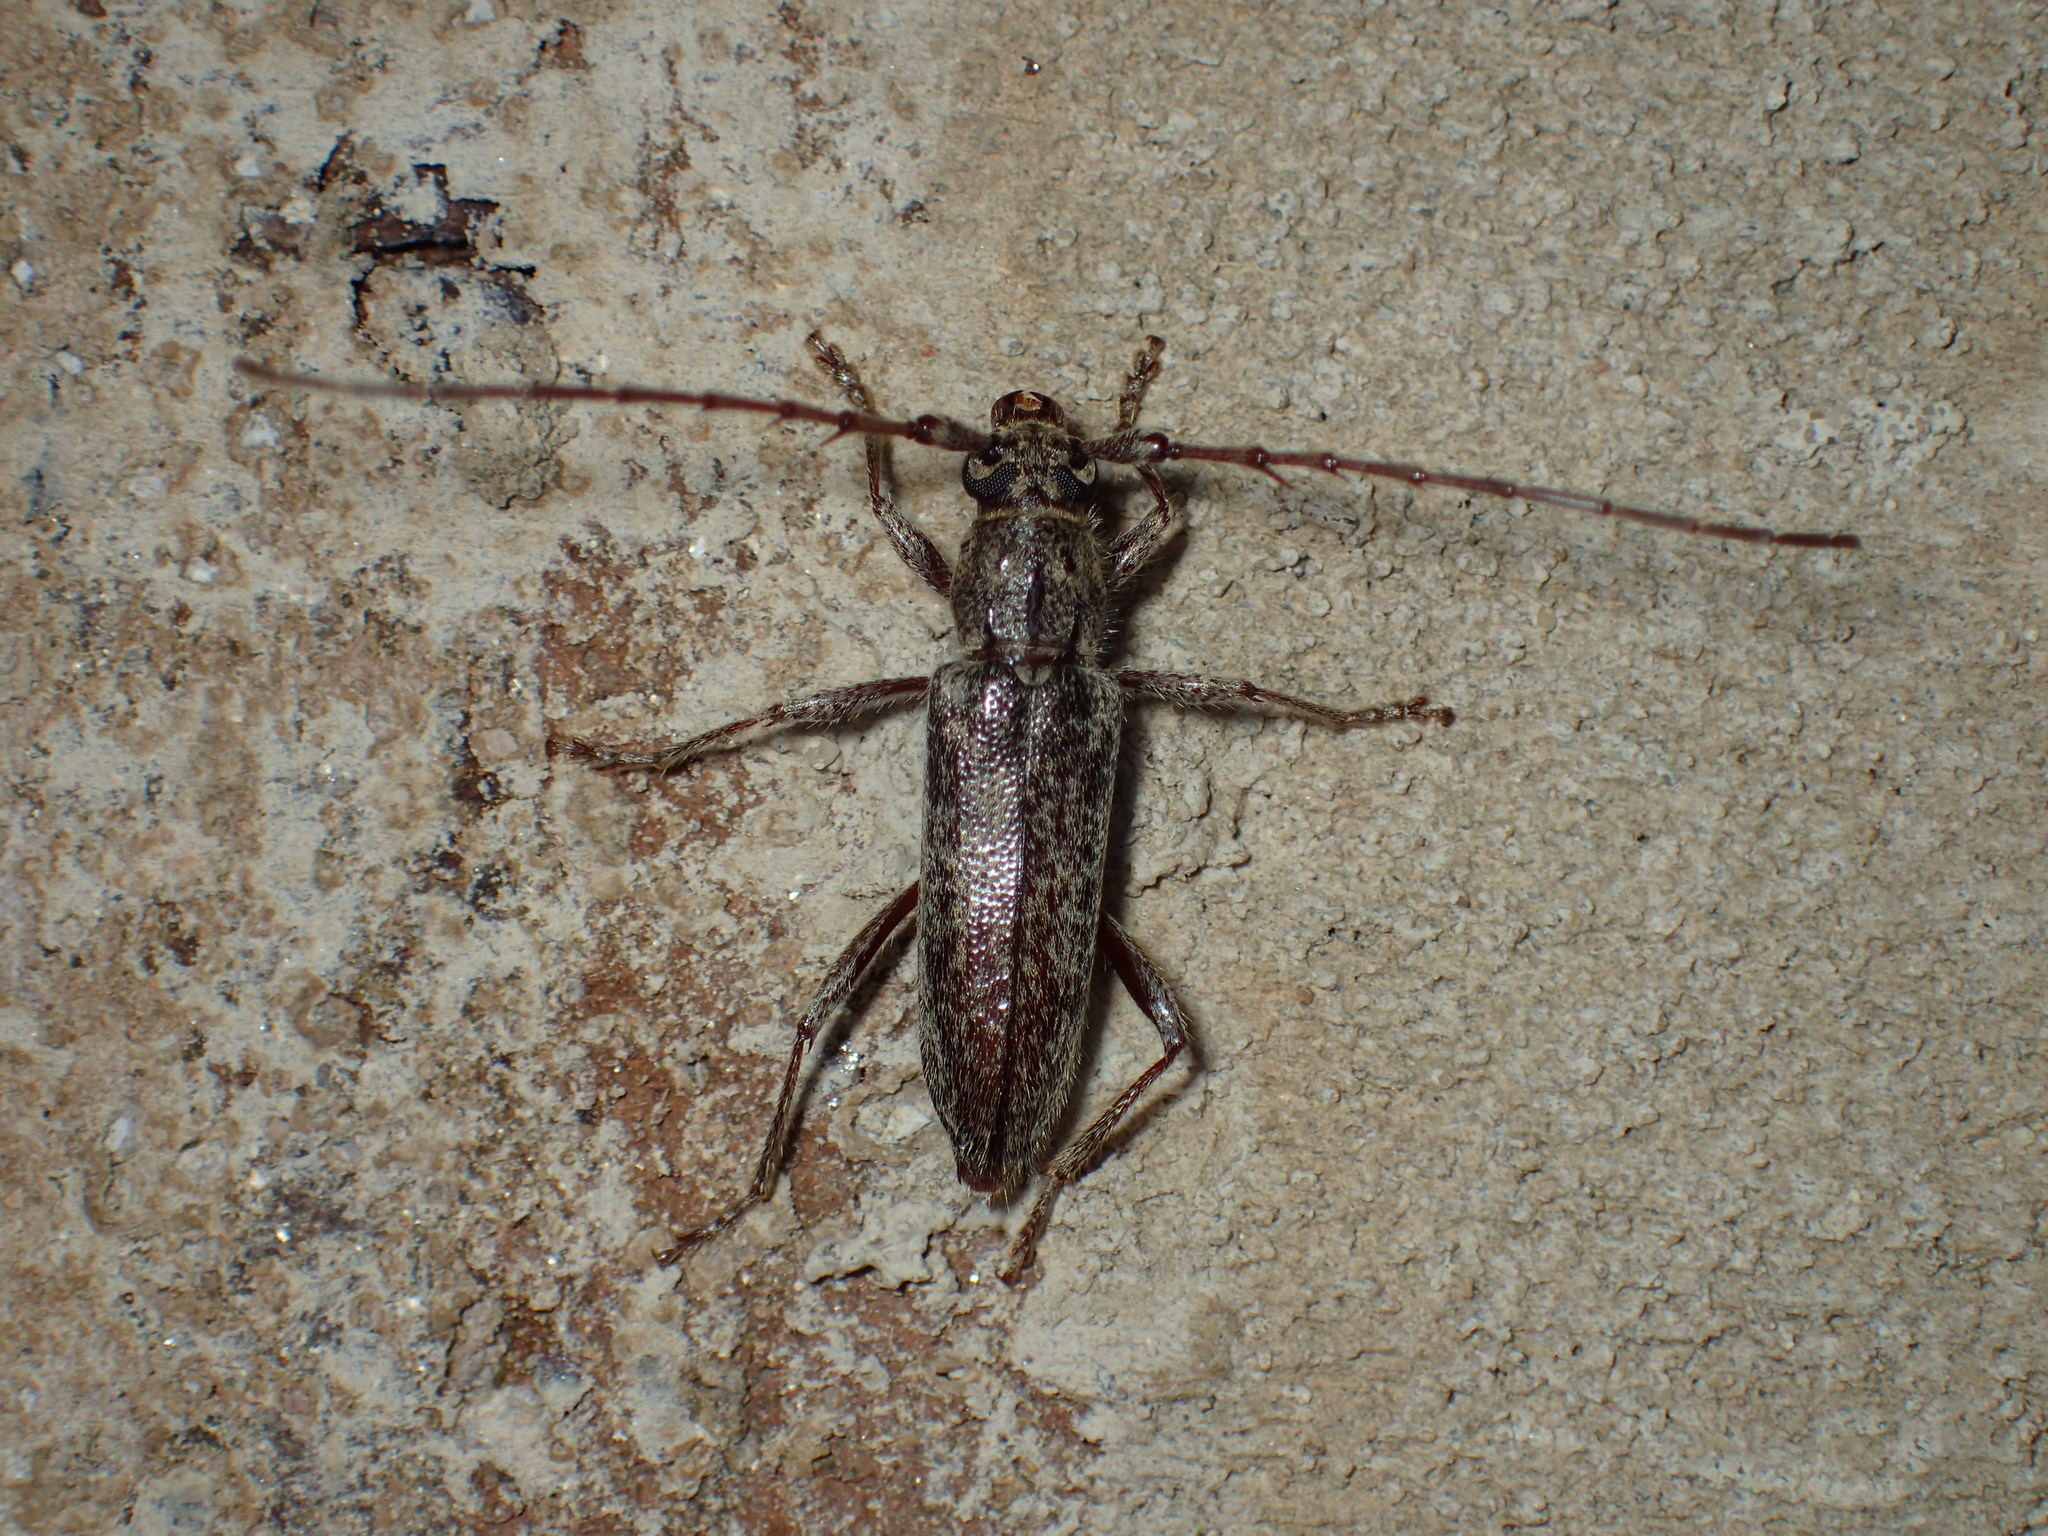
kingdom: Animalia
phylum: Arthropoda
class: Insecta
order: Coleoptera
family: Cerambycidae
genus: Parelaphidion
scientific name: Parelaphidion incertum
